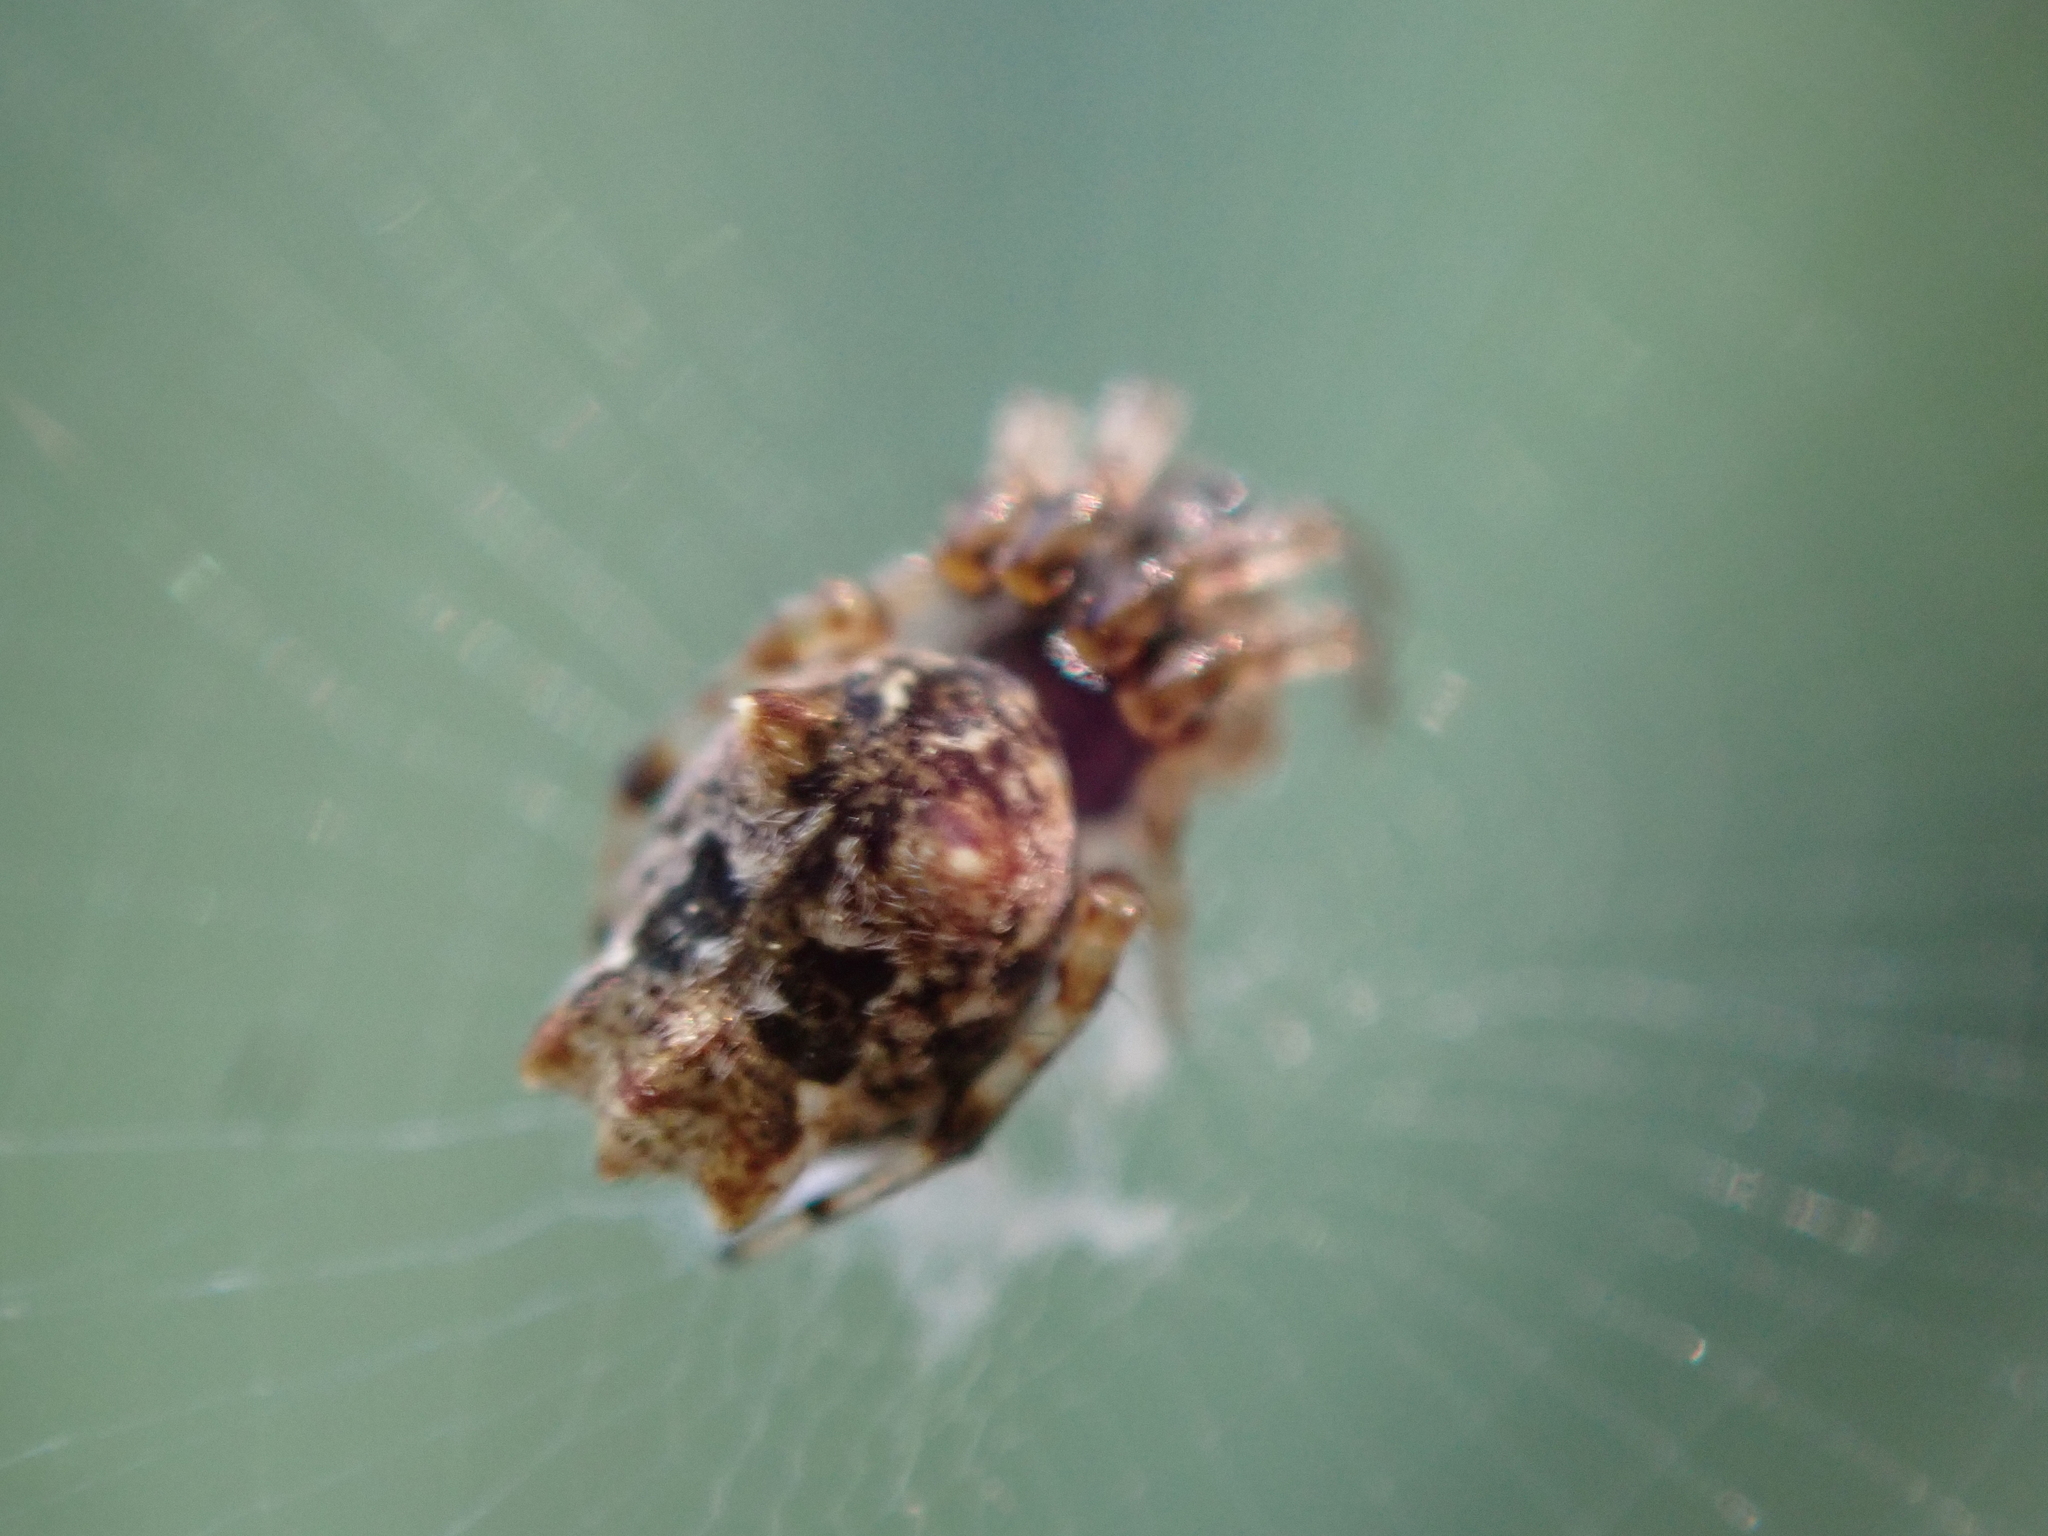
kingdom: Animalia
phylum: Arthropoda
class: Arachnida
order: Araneae
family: Araneidae
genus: Cyclosa
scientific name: Cyclosa walckenaeri
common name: Orb weavers
